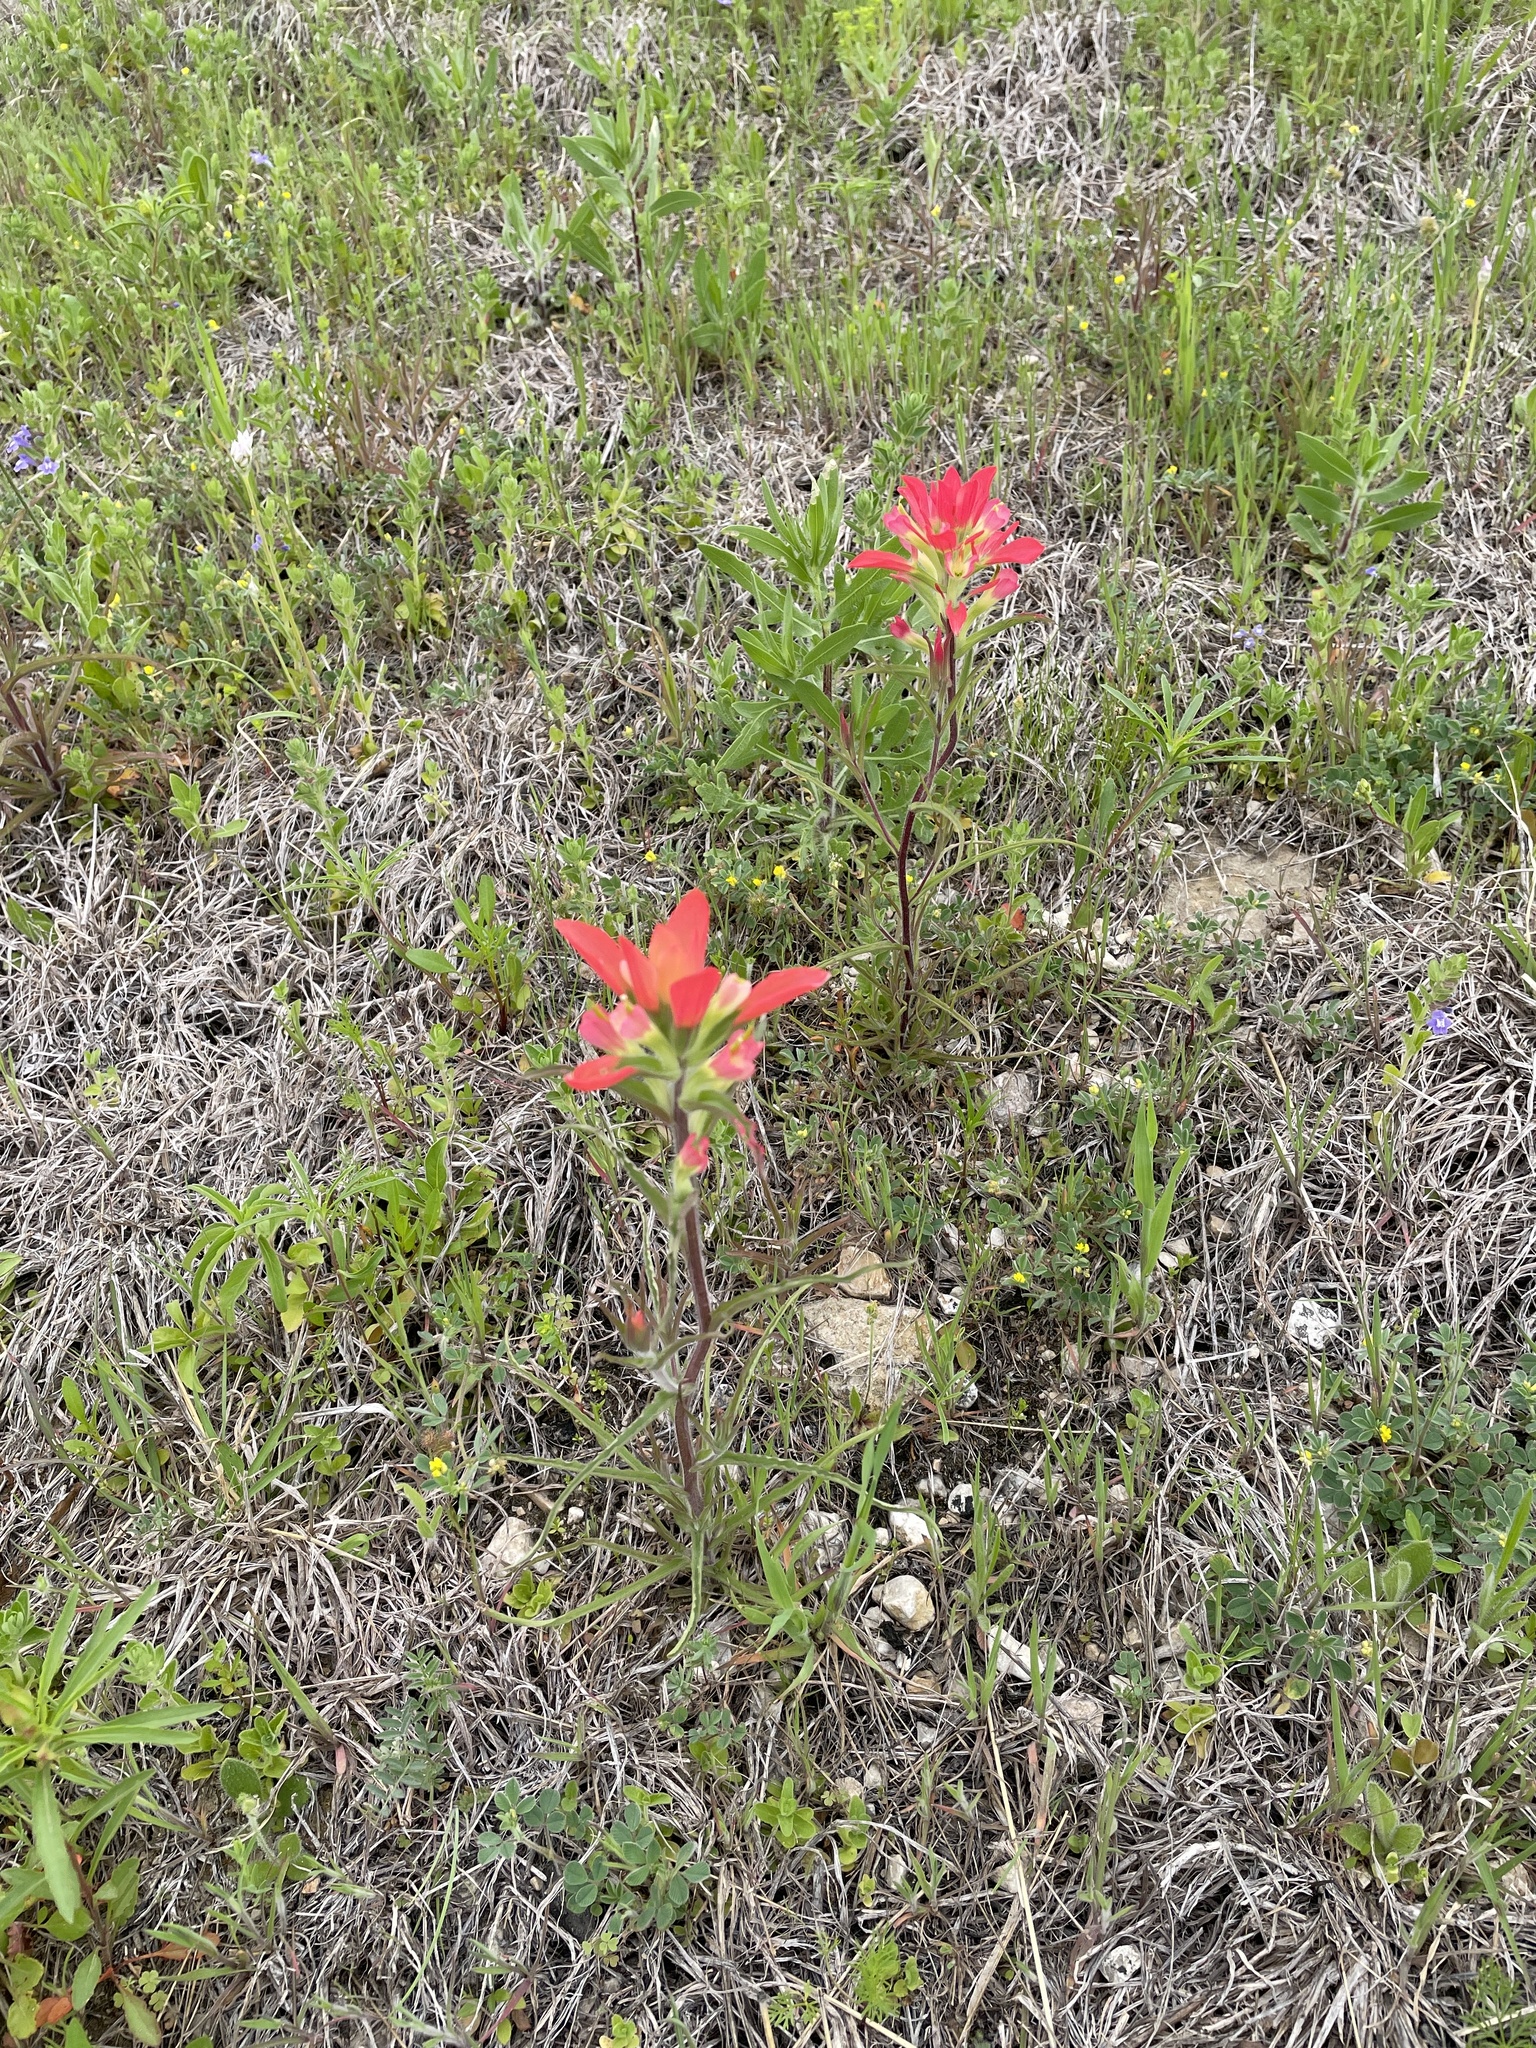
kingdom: Plantae
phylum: Tracheophyta
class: Magnoliopsida
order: Lamiales
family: Orobanchaceae
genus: Castilleja
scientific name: Castilleja indivisa
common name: Texas paintbrush
